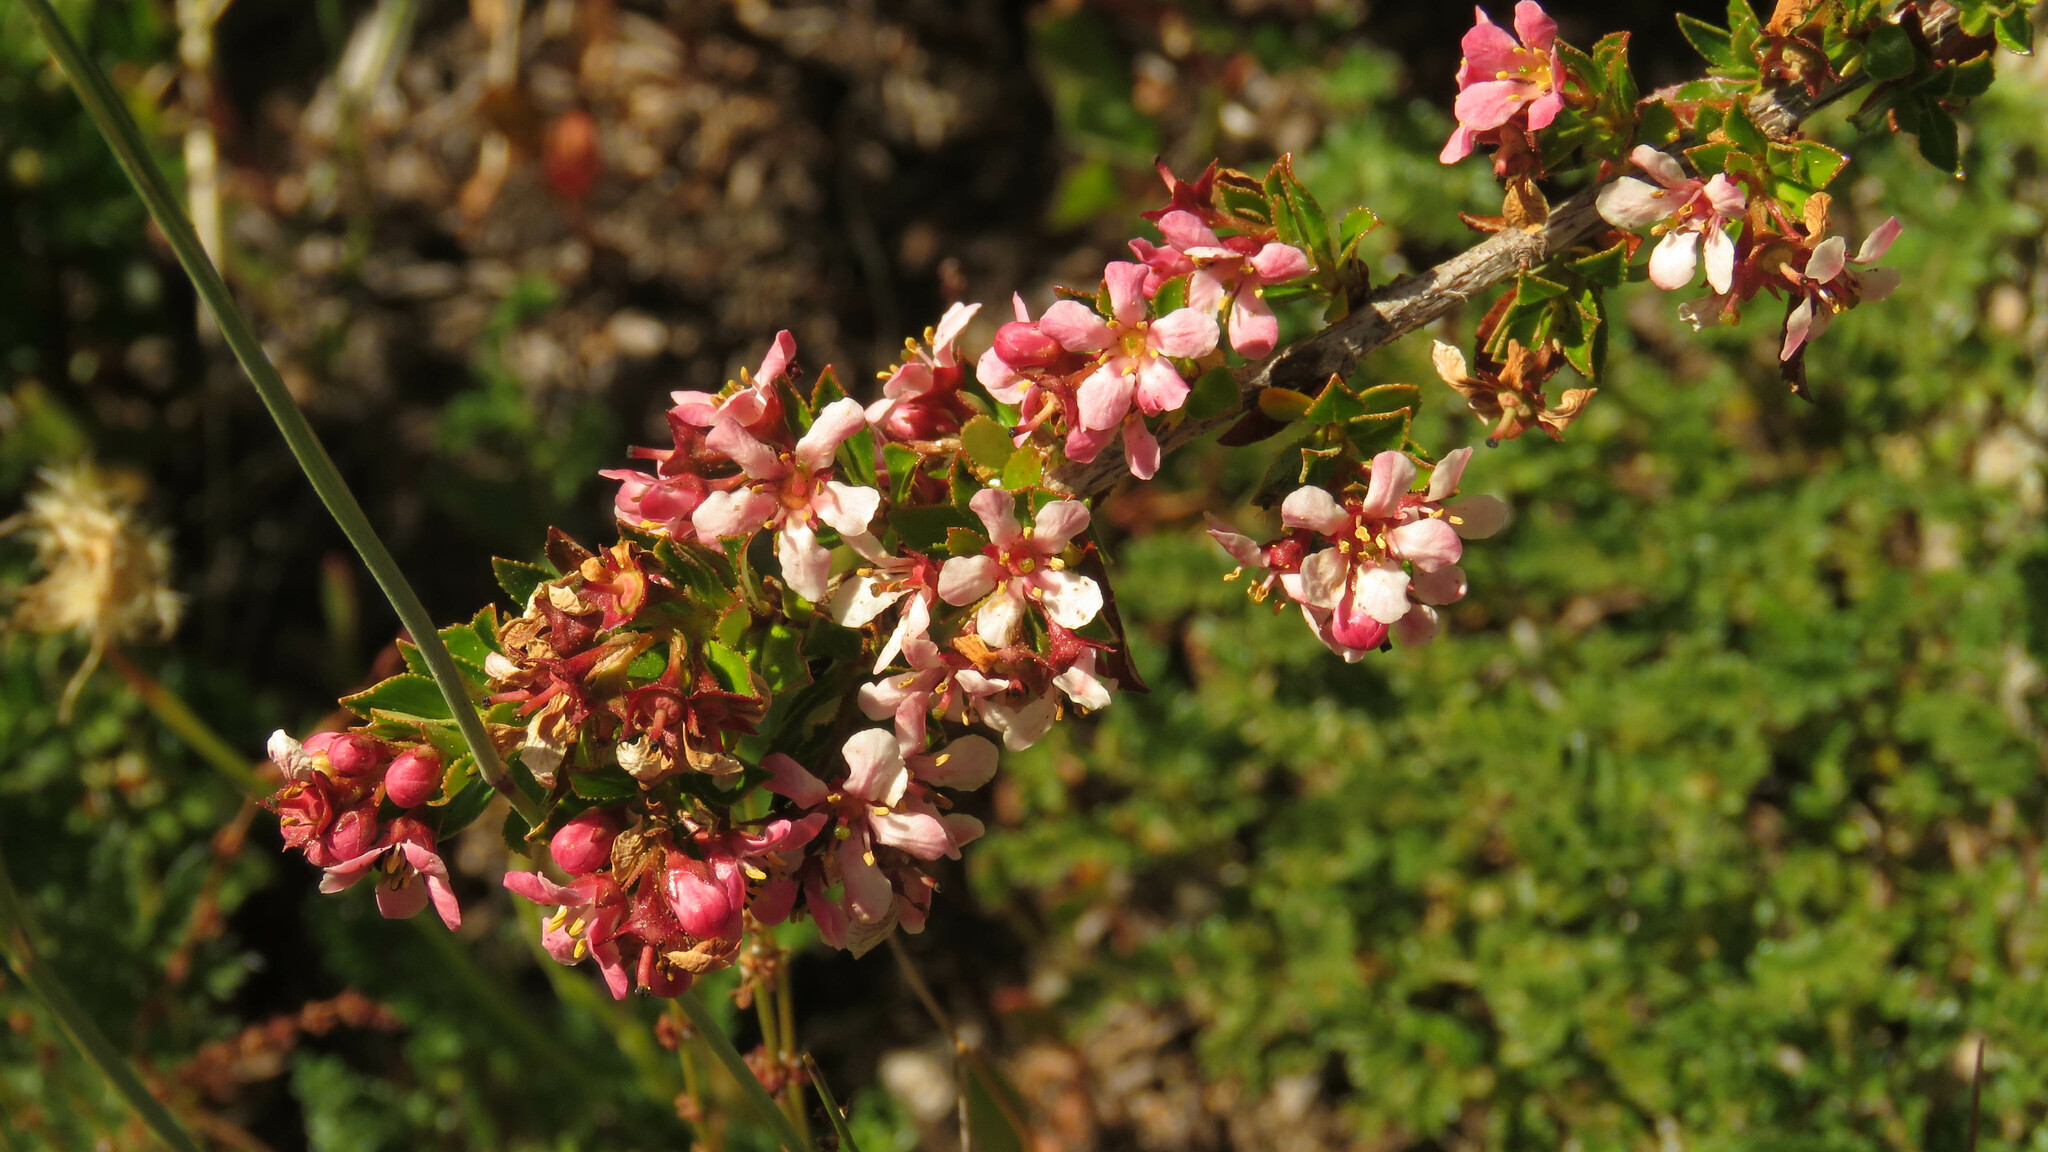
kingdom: Plantae
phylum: Tracheophyta
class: Magnoliopsida
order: Escalloniales
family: Escalloniaceae
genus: Escallonia
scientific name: Escallonia virgata
